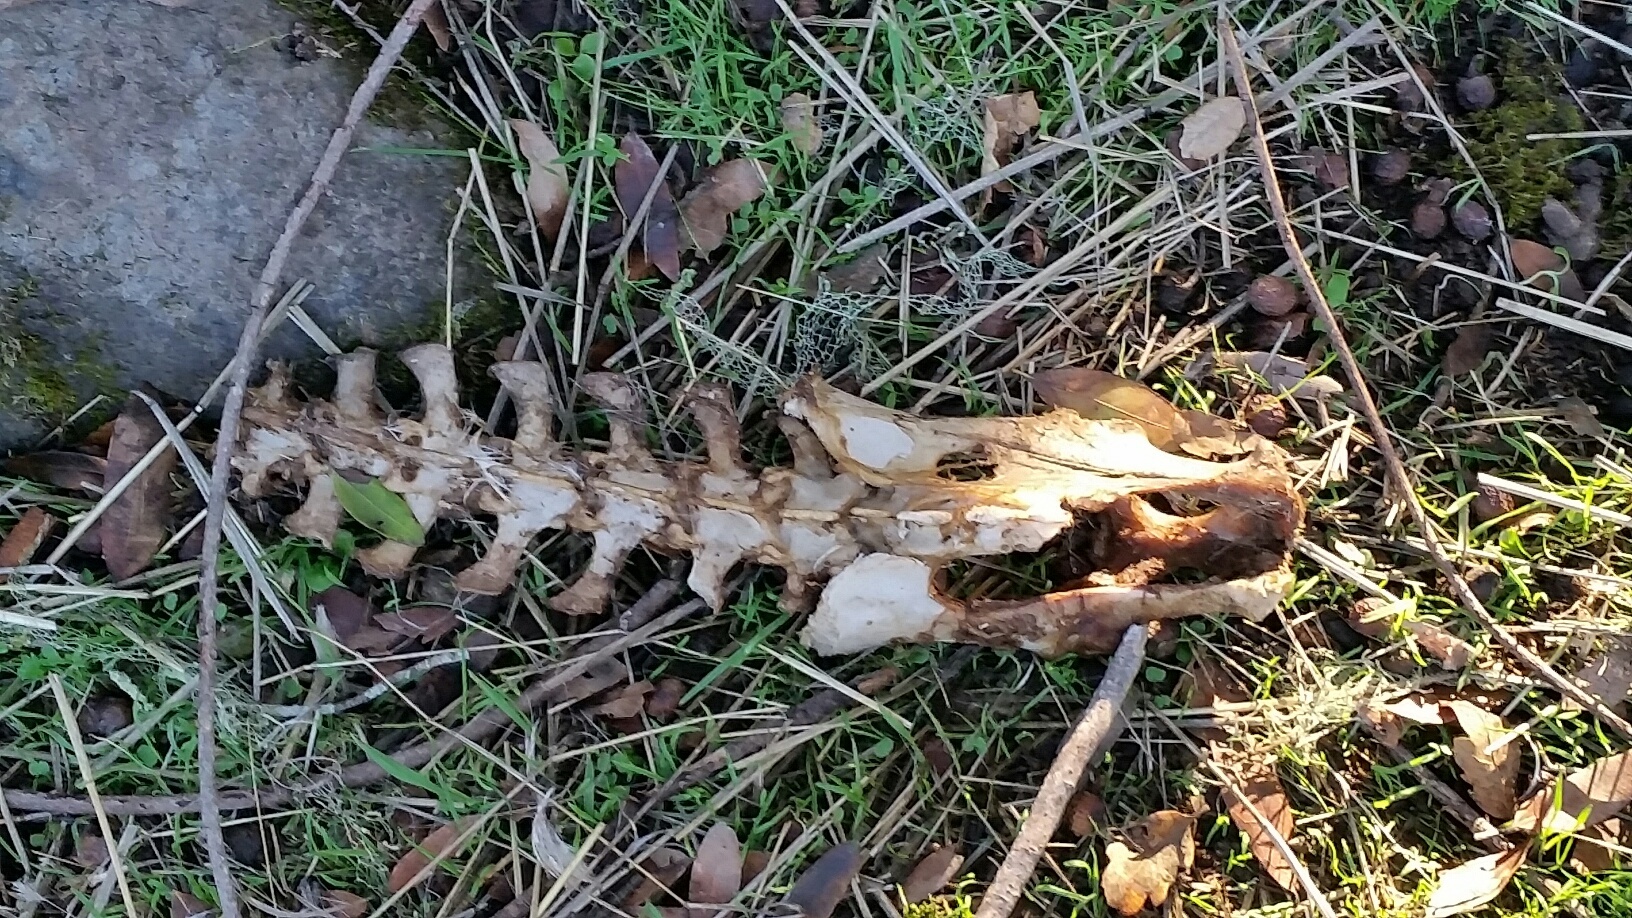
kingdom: Animalia
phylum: Chordata
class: Mammalia
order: Artiodactyla
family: Cervidae
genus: Odocoileus
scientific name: Odocoileus hemionus
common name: Mule deer
